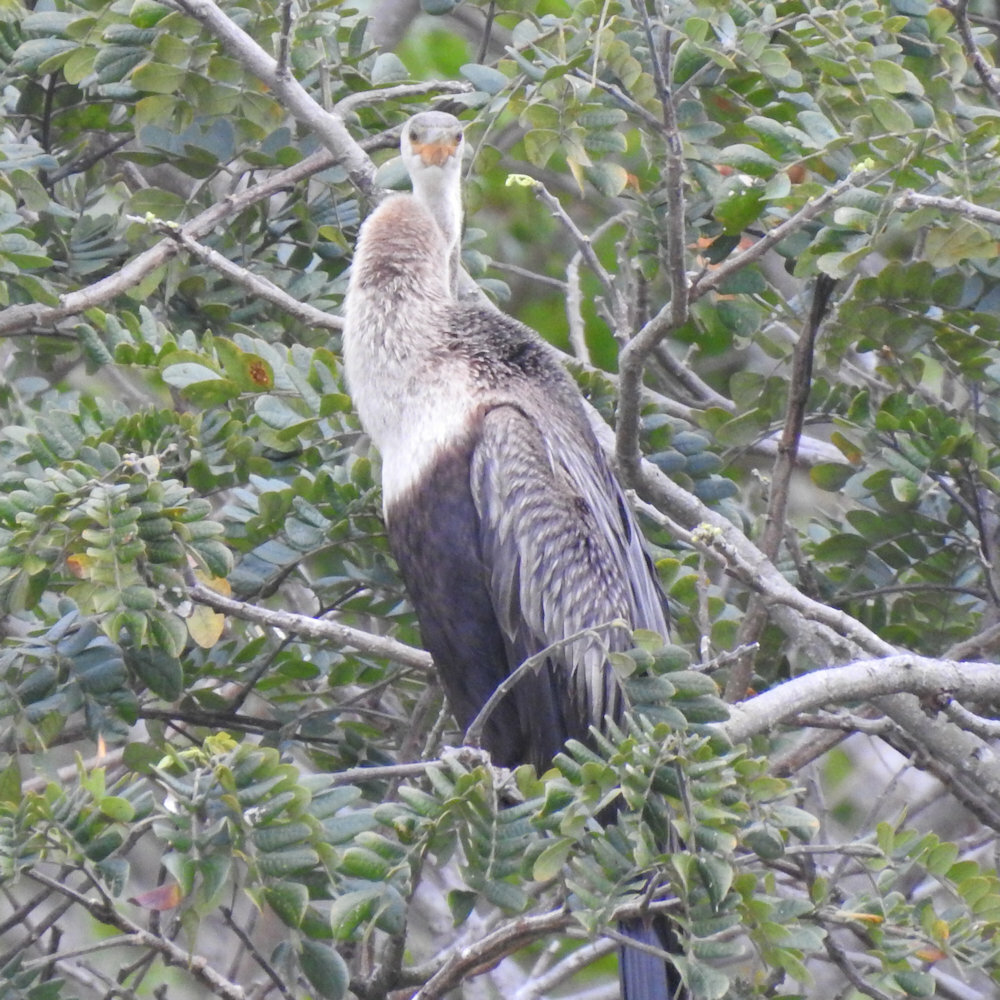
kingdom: Animalia
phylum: Chordata
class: Aves
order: Suliformes
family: Anhingidae
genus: Anhinga
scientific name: Anhinga anhinga
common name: Anhinga
